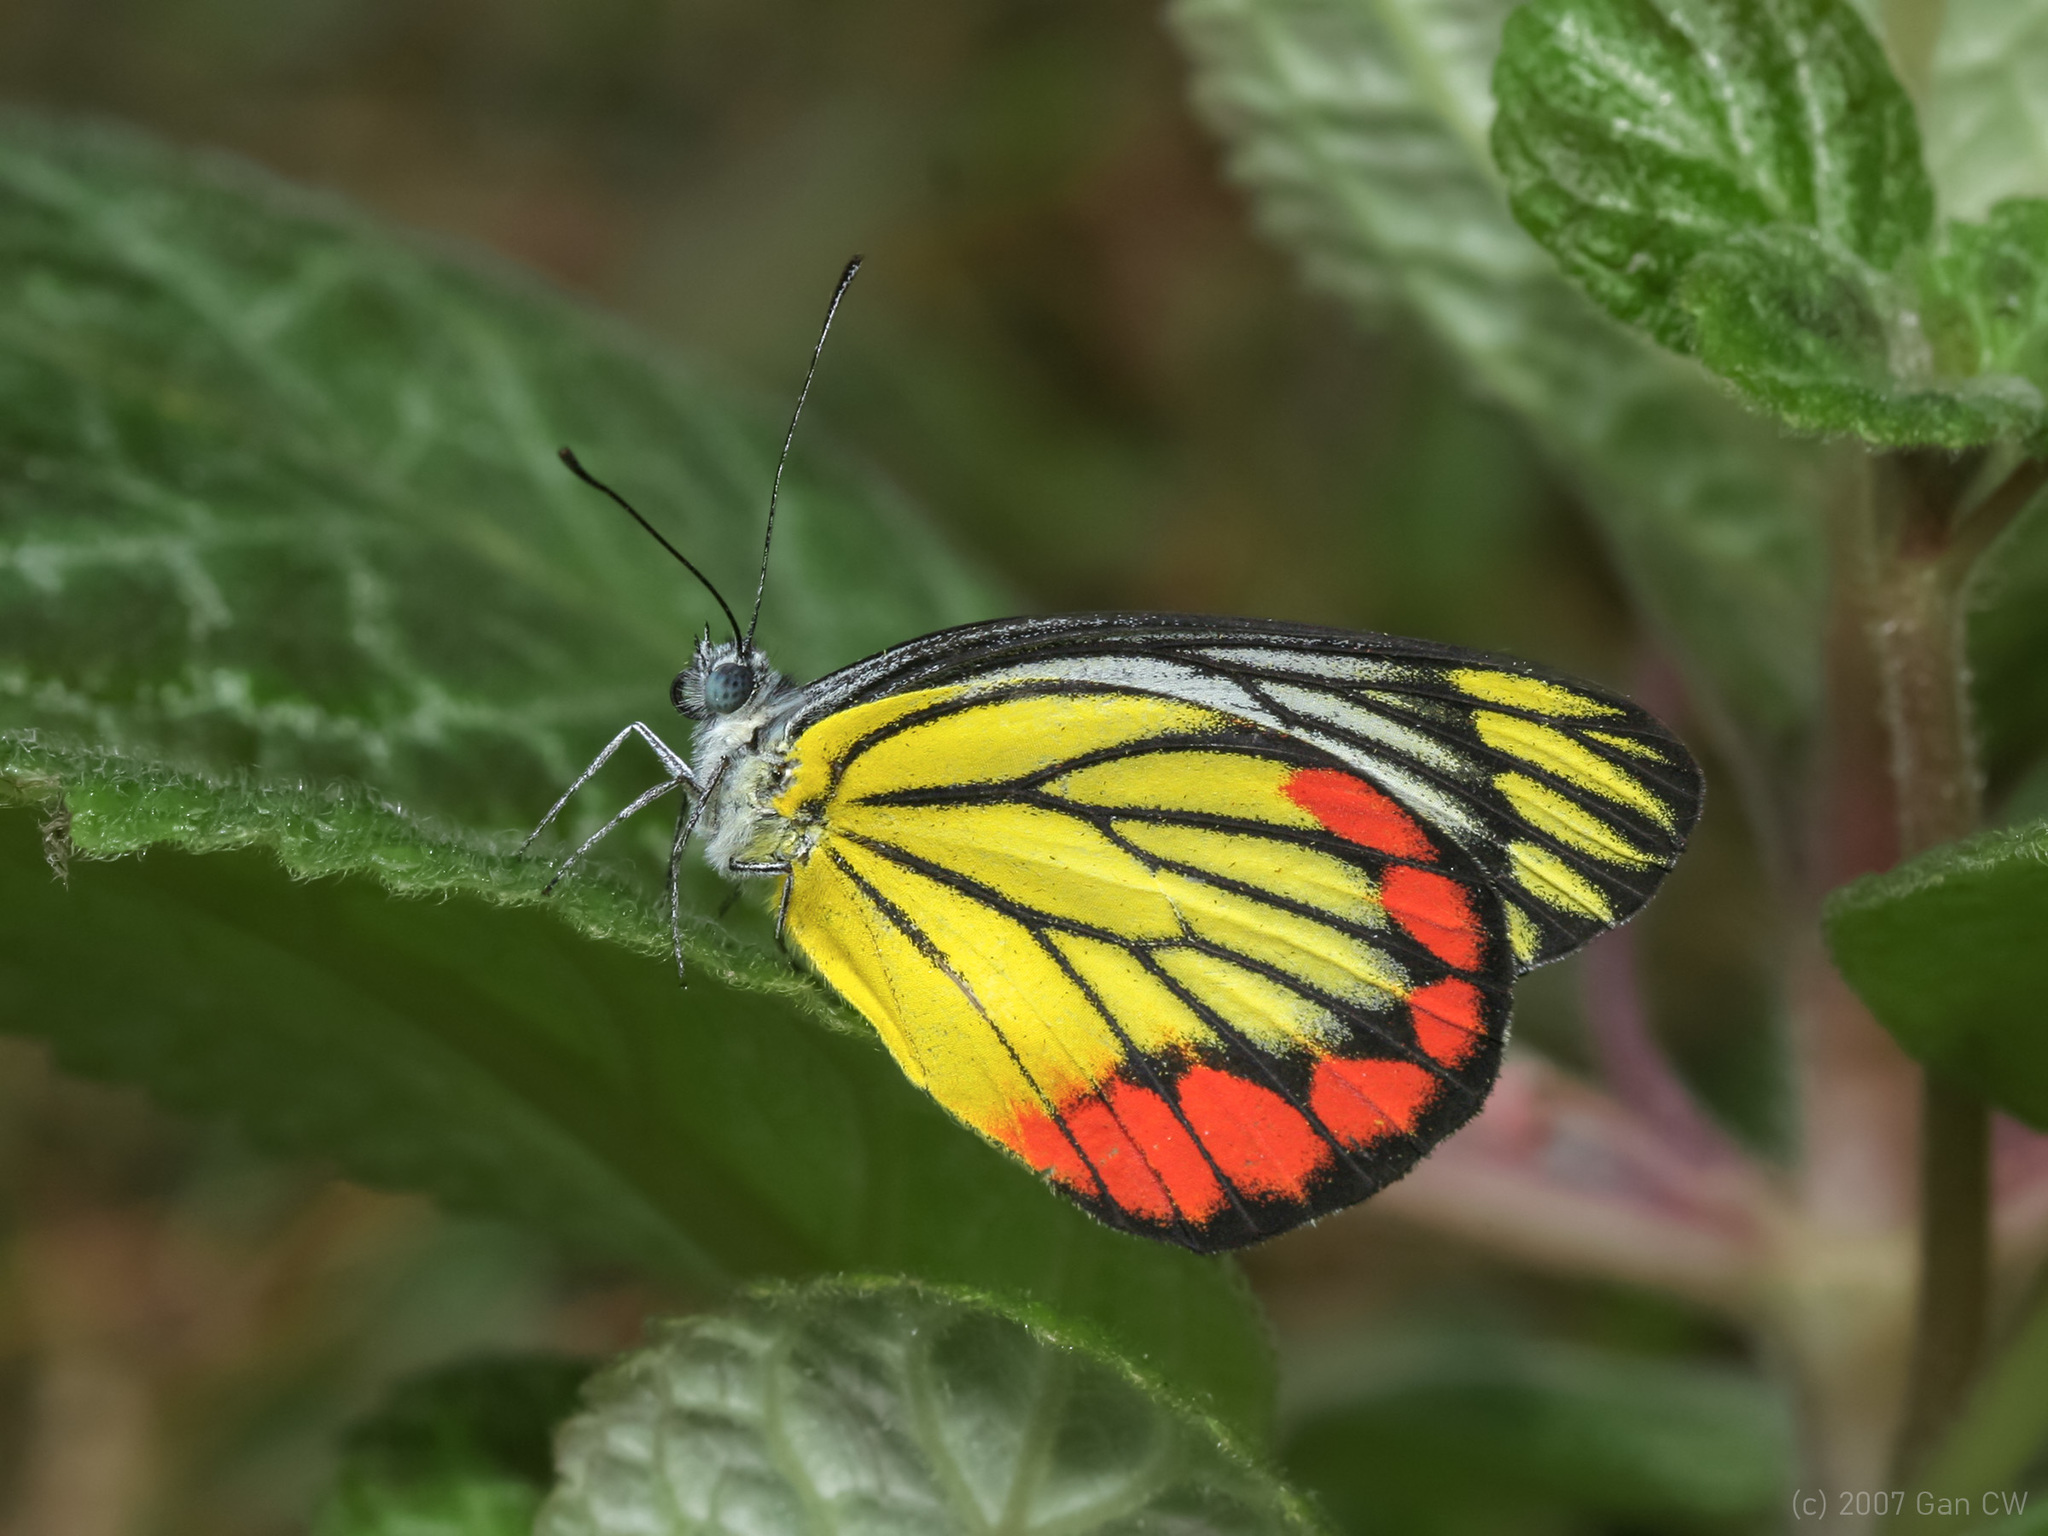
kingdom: Animalia
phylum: Arthropoda
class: Insecta
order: Lepidoptera
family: Pieridae
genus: Delias
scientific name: Delias hyparete
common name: Painted jezebel
